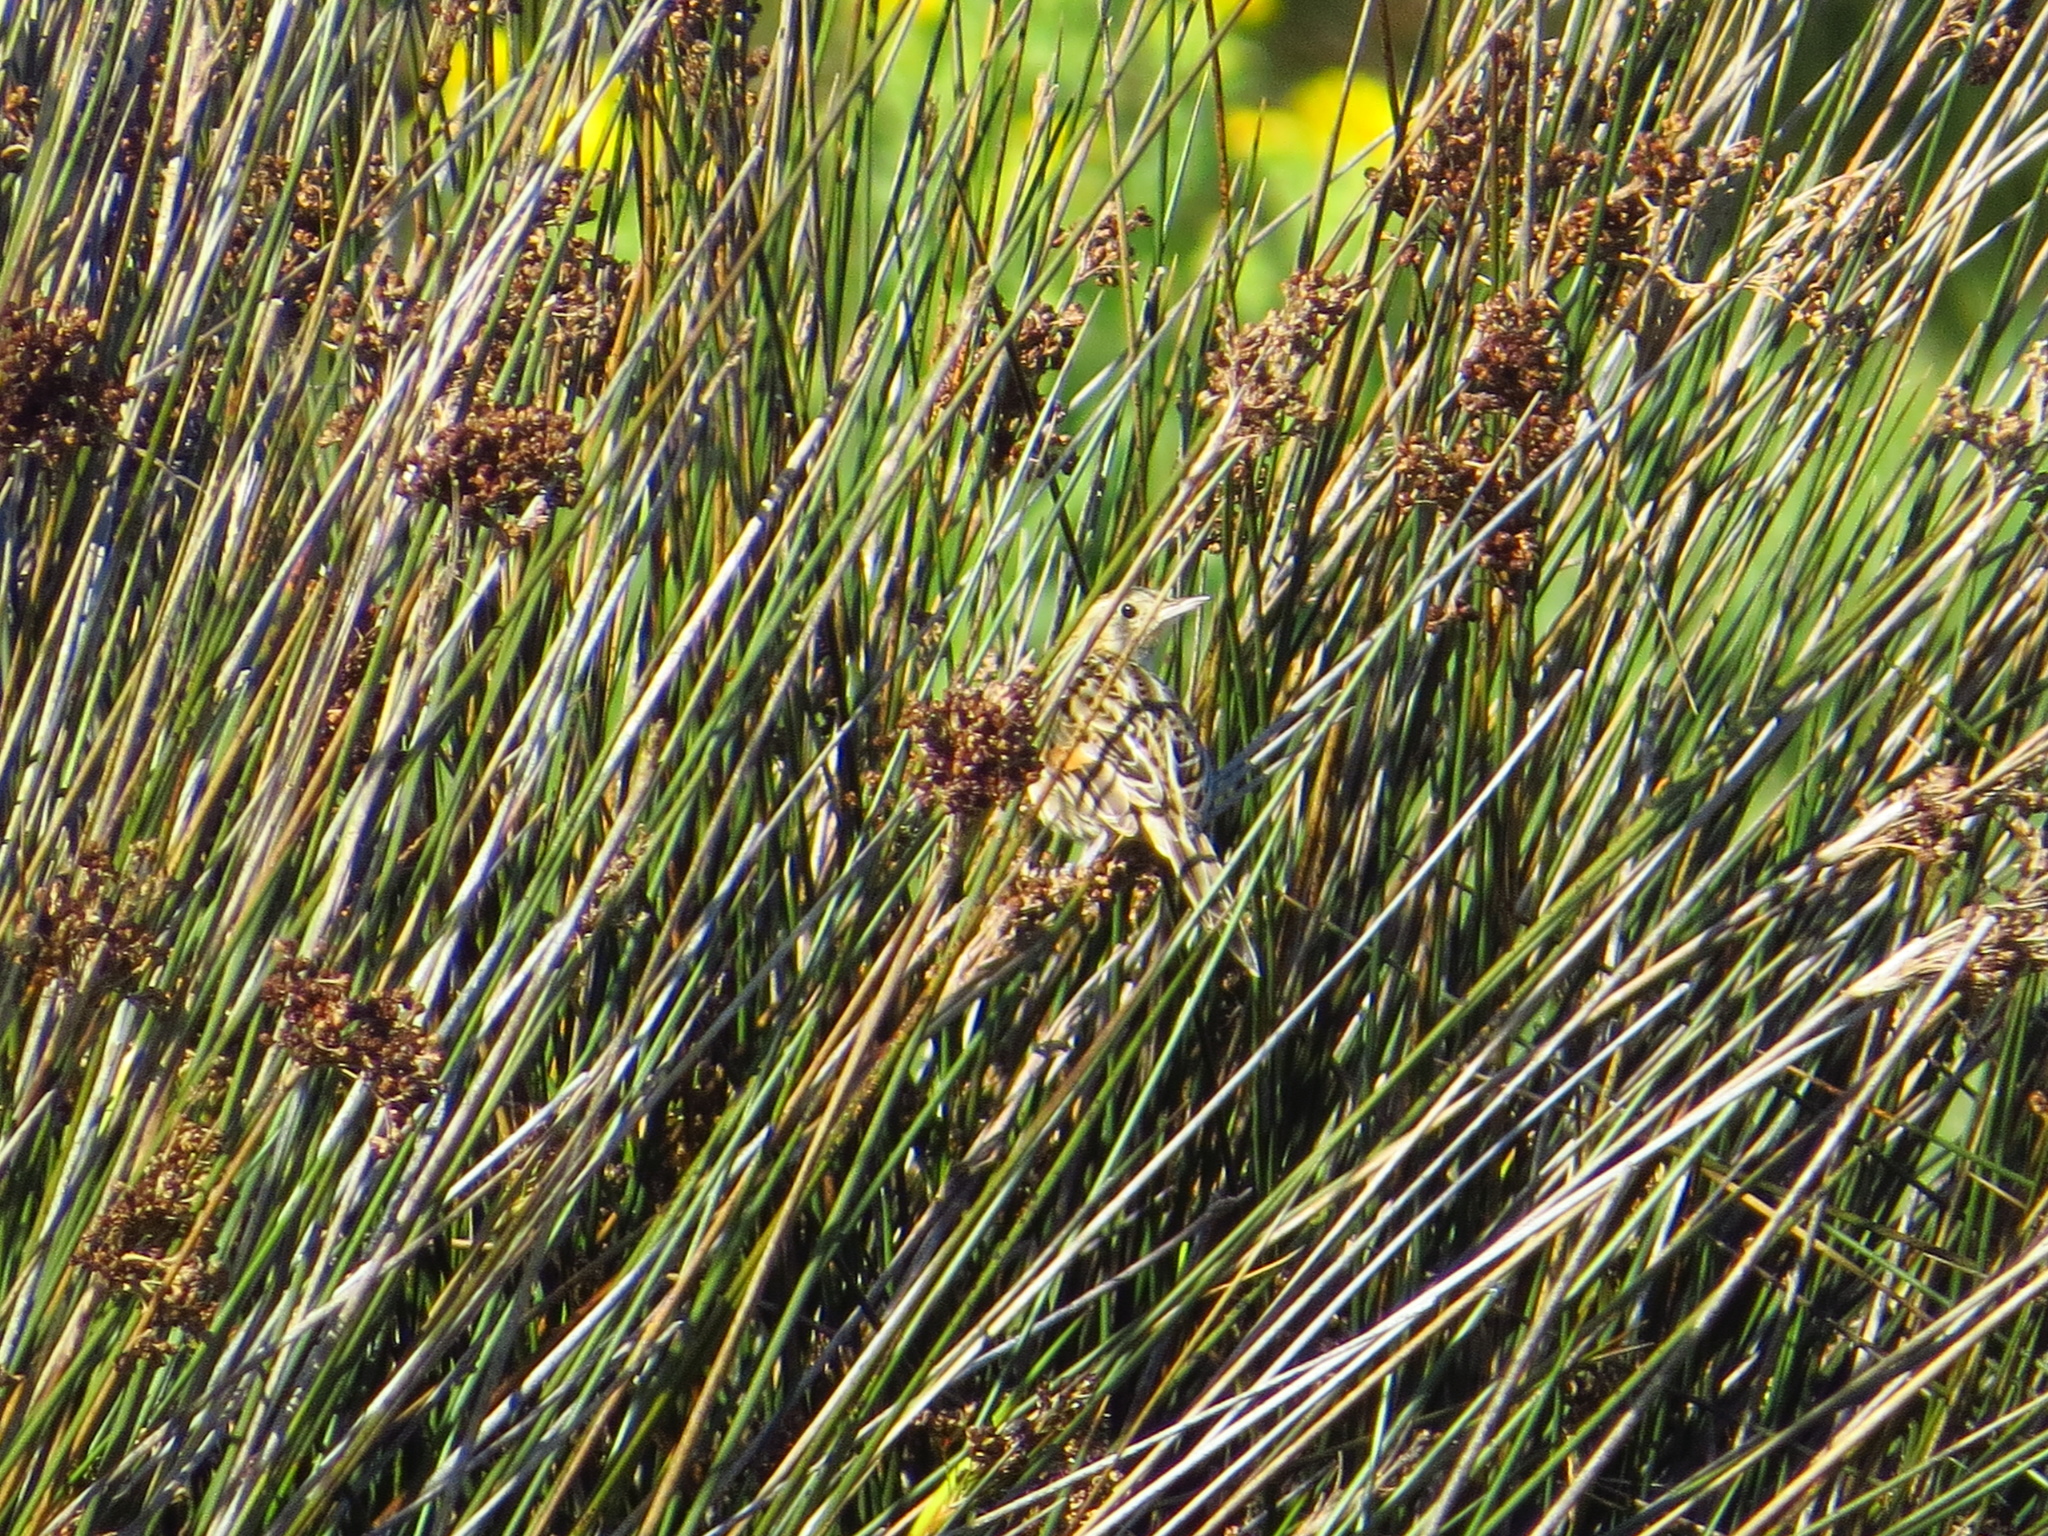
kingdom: Animalia
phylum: Chordata
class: Aves
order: Passeriformes
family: Furnariidae
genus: Asthenes
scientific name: Asthenes hudsoni
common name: Hudson's canastero
